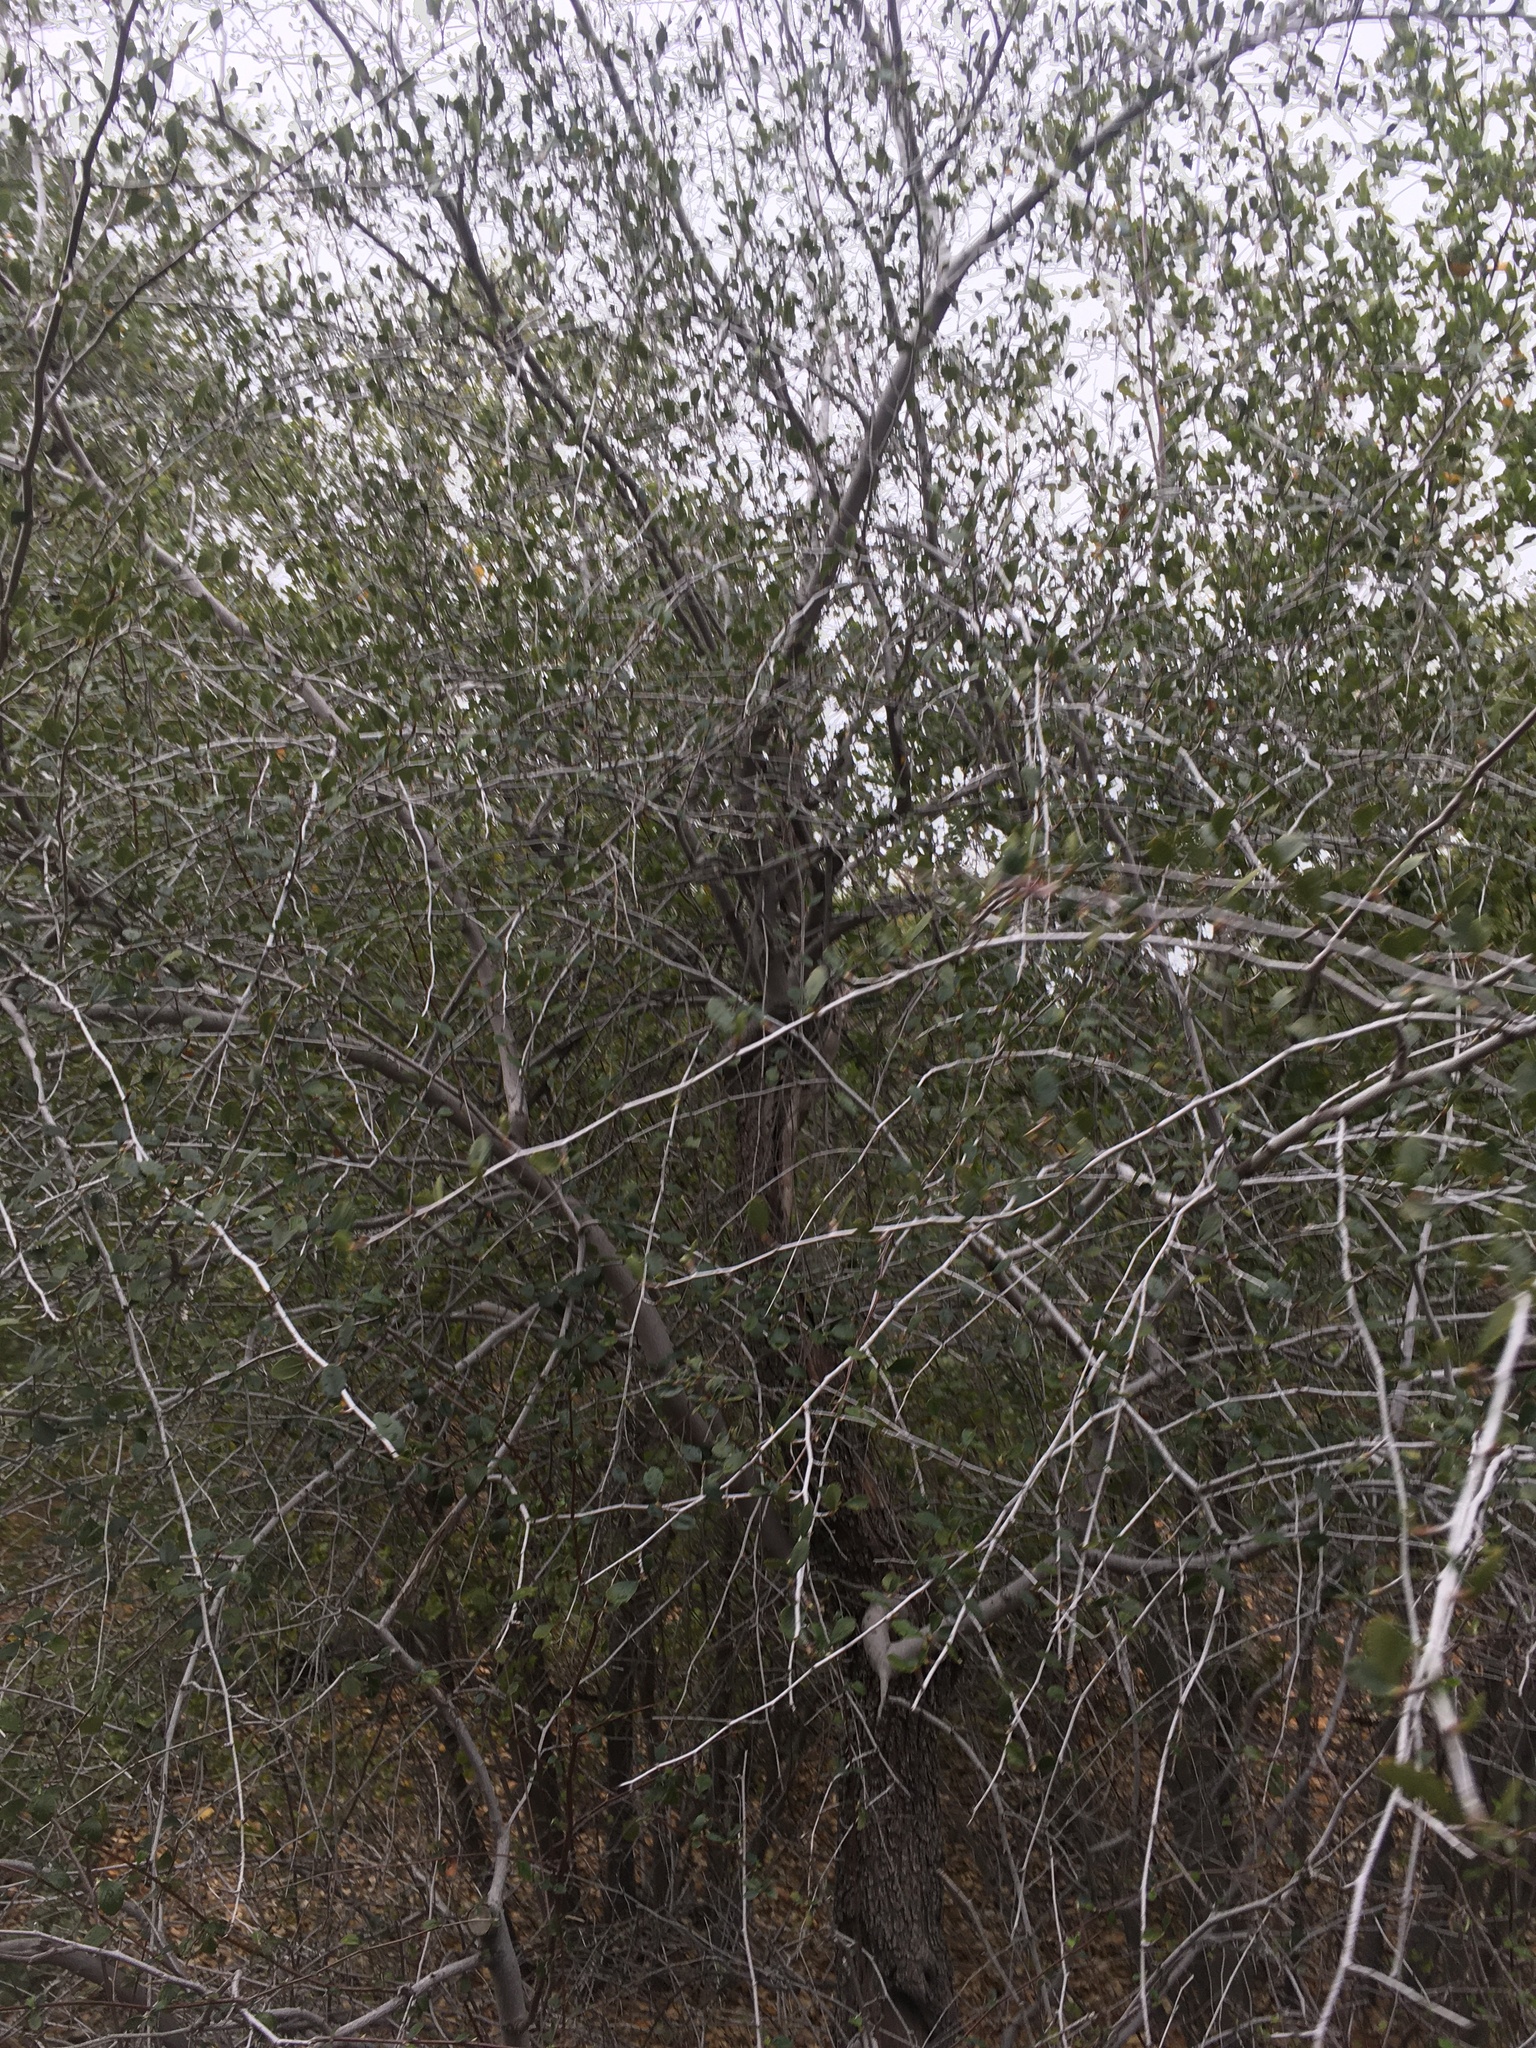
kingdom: Plantae
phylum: Tracheophyta
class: Magnoliopsida
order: Rosales
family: Rosaceae
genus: Cercocarpus
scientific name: Cercocarpus betuloides
